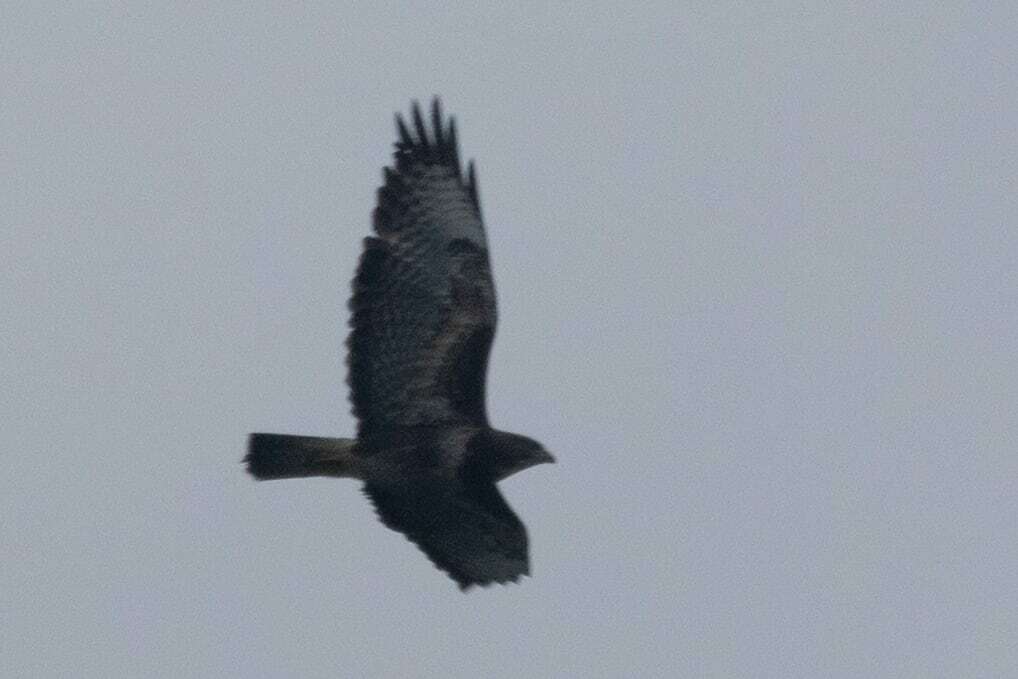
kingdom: Animalia
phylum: Chordata
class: Aves
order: Accipitriformes
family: Accipitridae
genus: Buteo
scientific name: Buteo buteo
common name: Common buzzard
